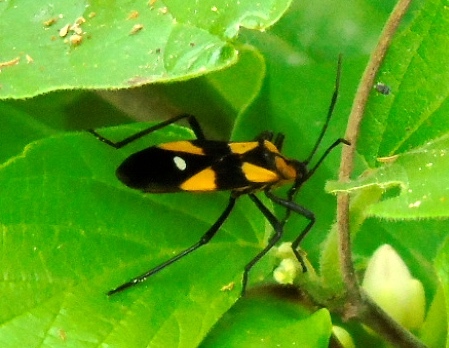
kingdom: Animalia
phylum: Arthropoda
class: Insecta
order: Hemiptera
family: Lygaeidae
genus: Oncopeltus
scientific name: Oncopeltus guttaloides
